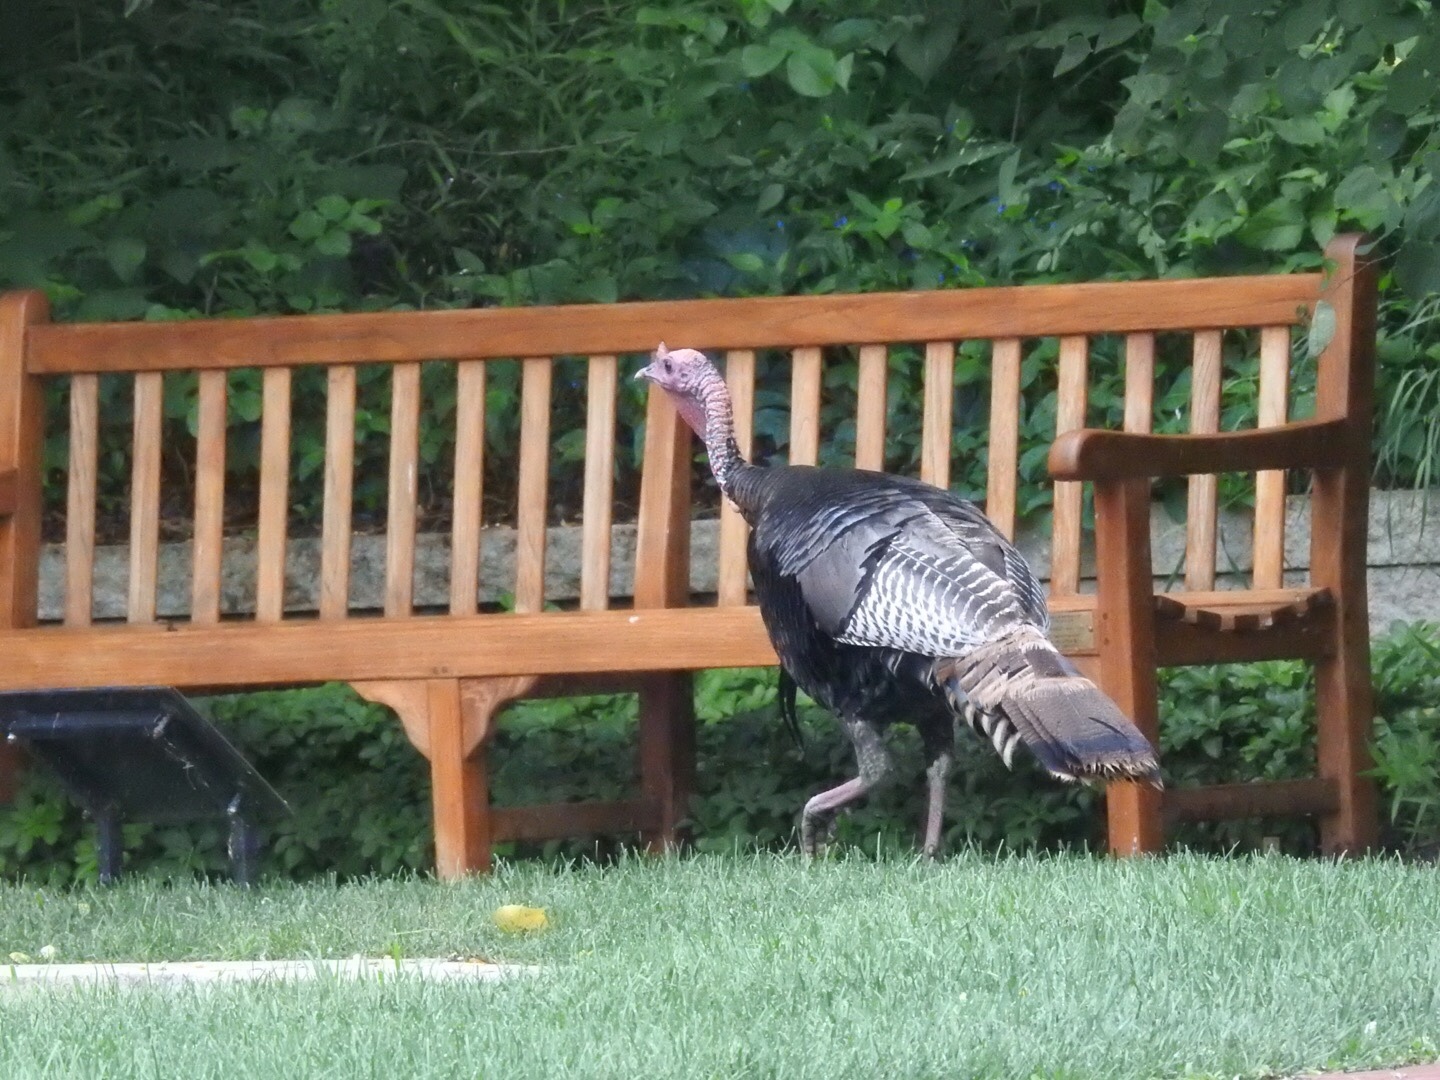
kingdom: Animalia
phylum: Chordata
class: Aves
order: Galliformes
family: Phasianidae
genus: Meleagris
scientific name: Meleagris gallopavo
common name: Wild turkey
